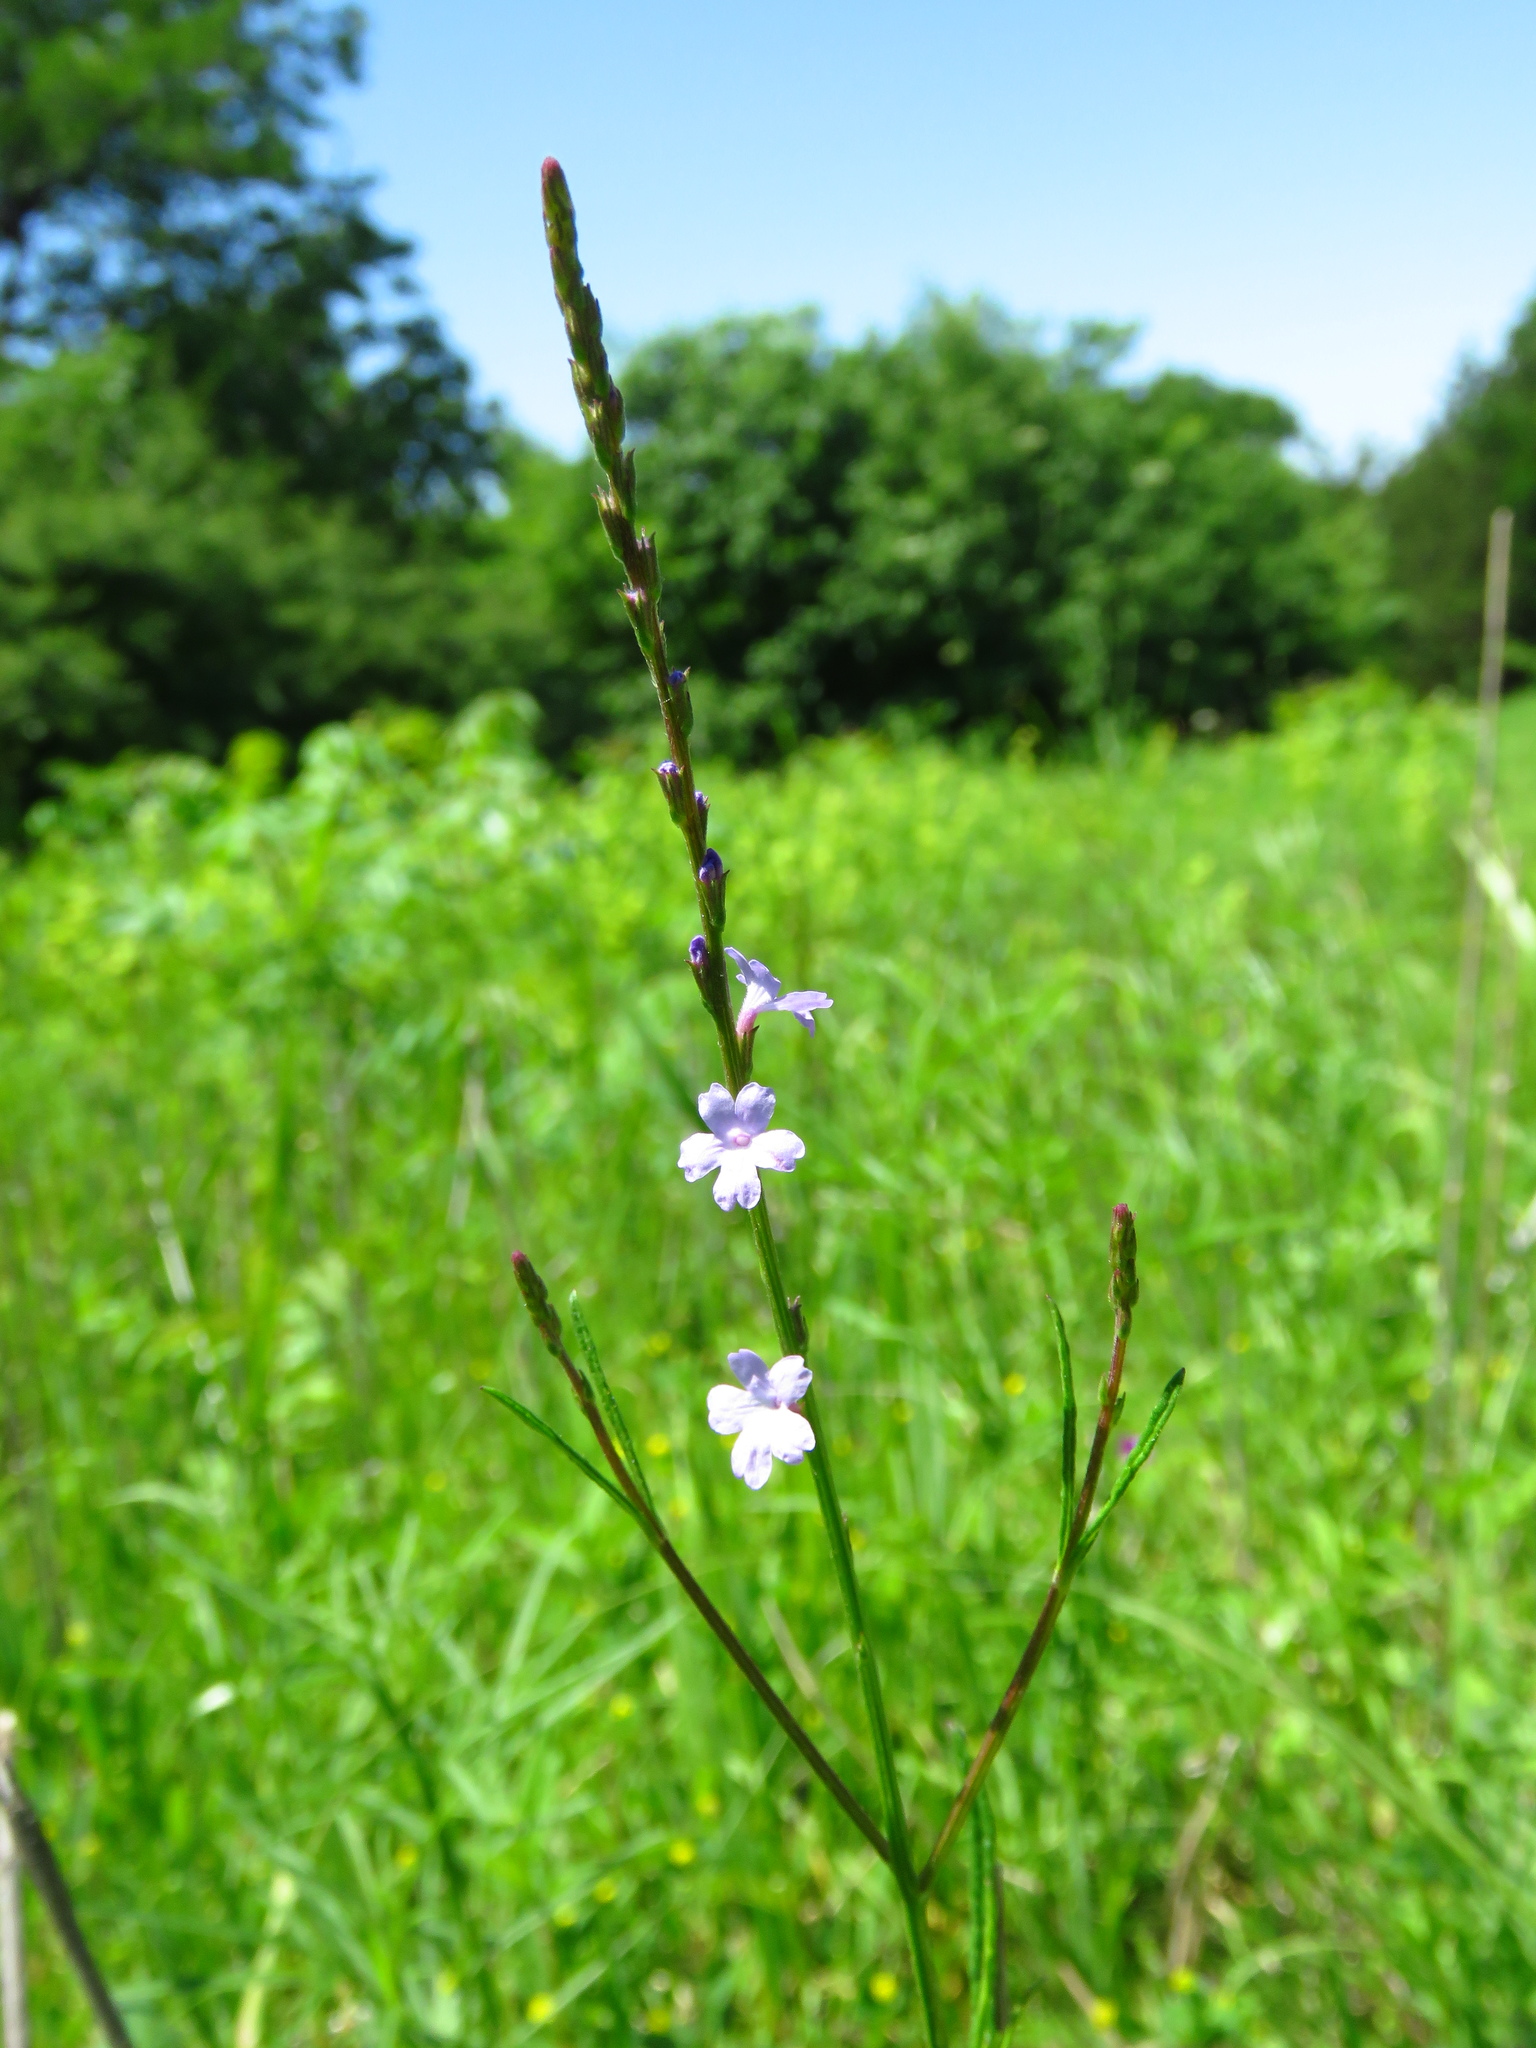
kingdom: Plantae
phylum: Tracheophyta
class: Magnoliopsida
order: Lamiales
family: Verbenaceae
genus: Verbena
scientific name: Verbena halei
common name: Texas vervain
